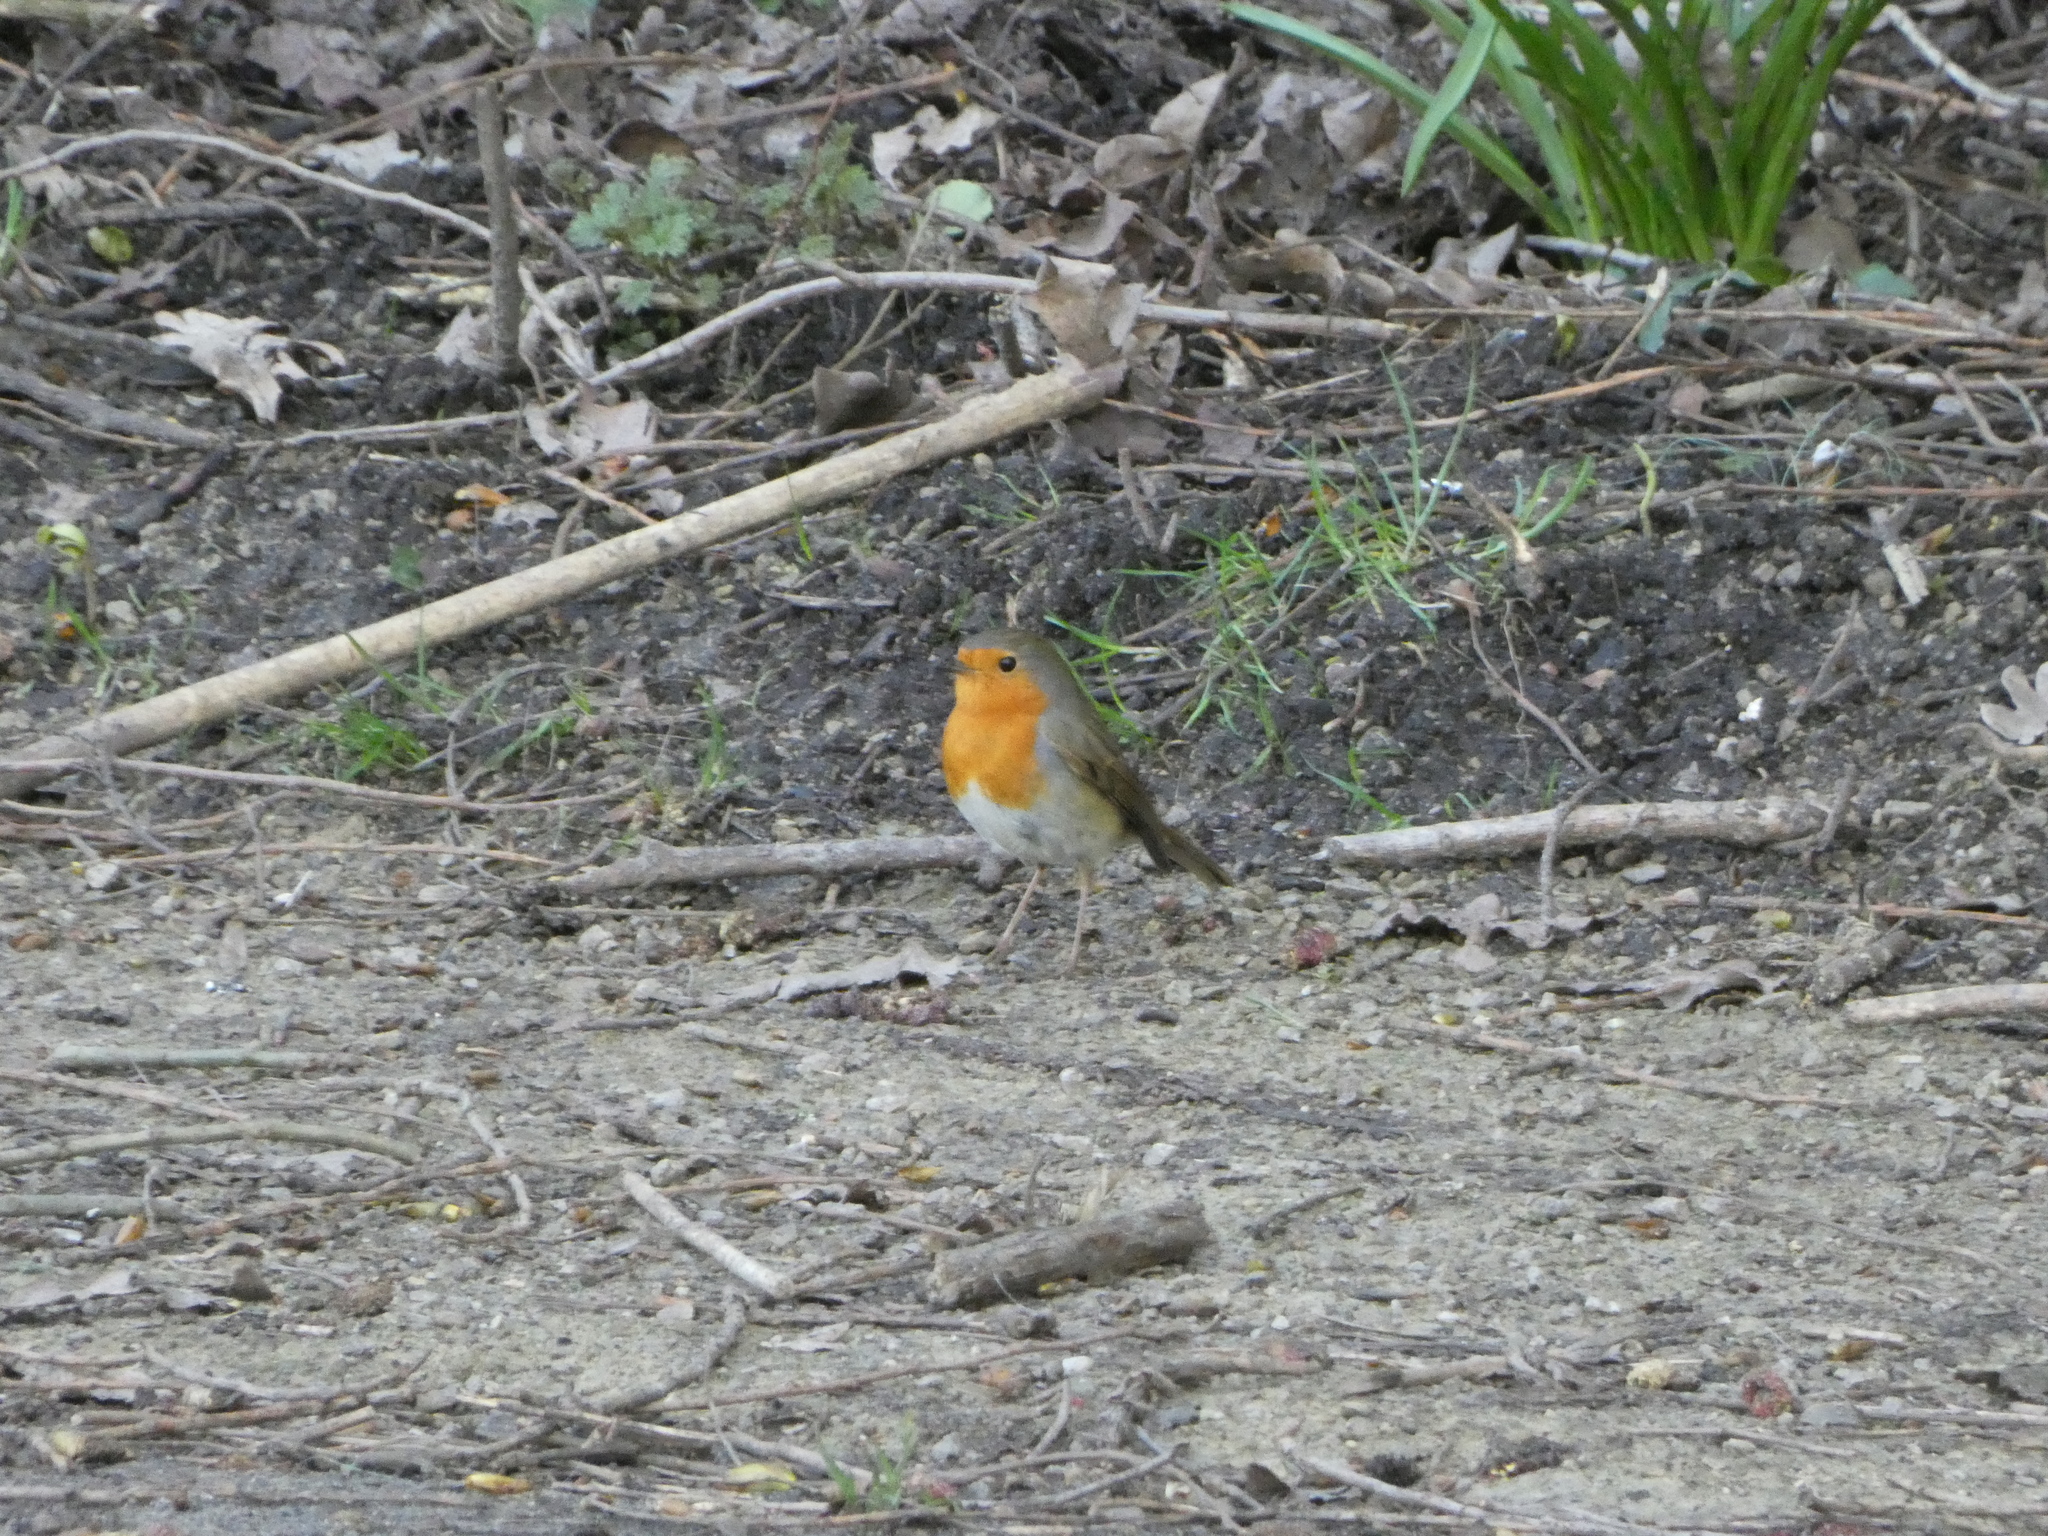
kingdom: Animalia
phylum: Chordata
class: Aves
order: Passeriformes
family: Muscicapidae
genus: Erithacus
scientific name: Erithacus rubecula
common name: European robin
